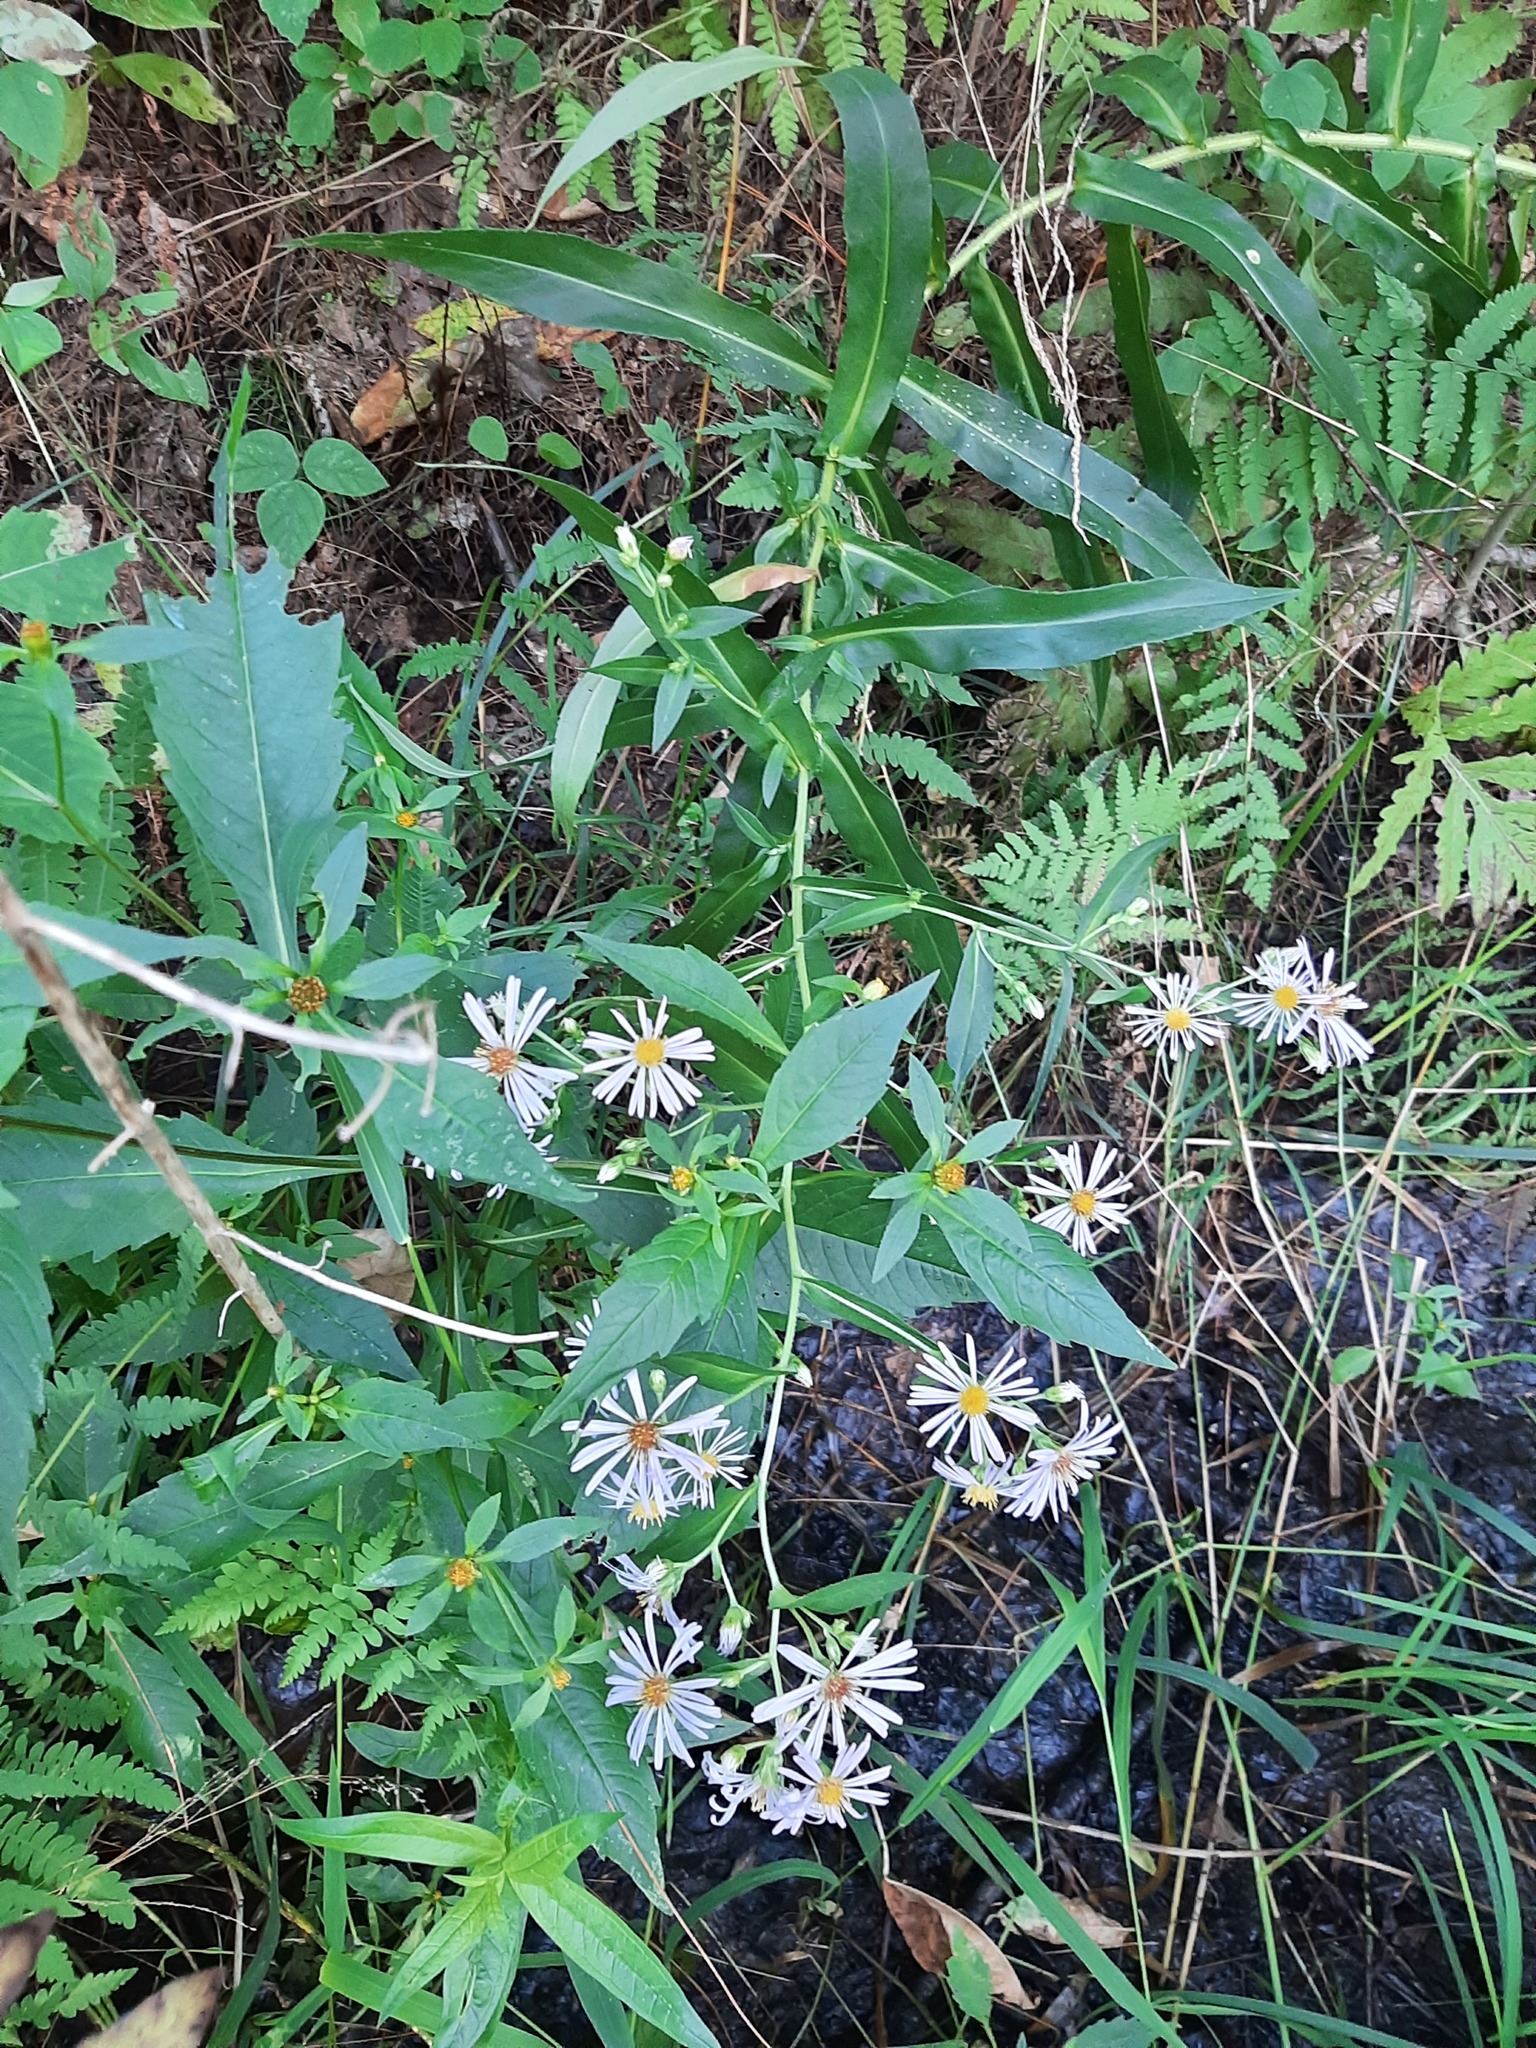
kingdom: Plantae
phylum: Tracheophyta
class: Magnoliopsida
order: Asterales
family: Asteraceae
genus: Symphyotrichum
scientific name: Symphyotrichum puniceum
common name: Bog aster
